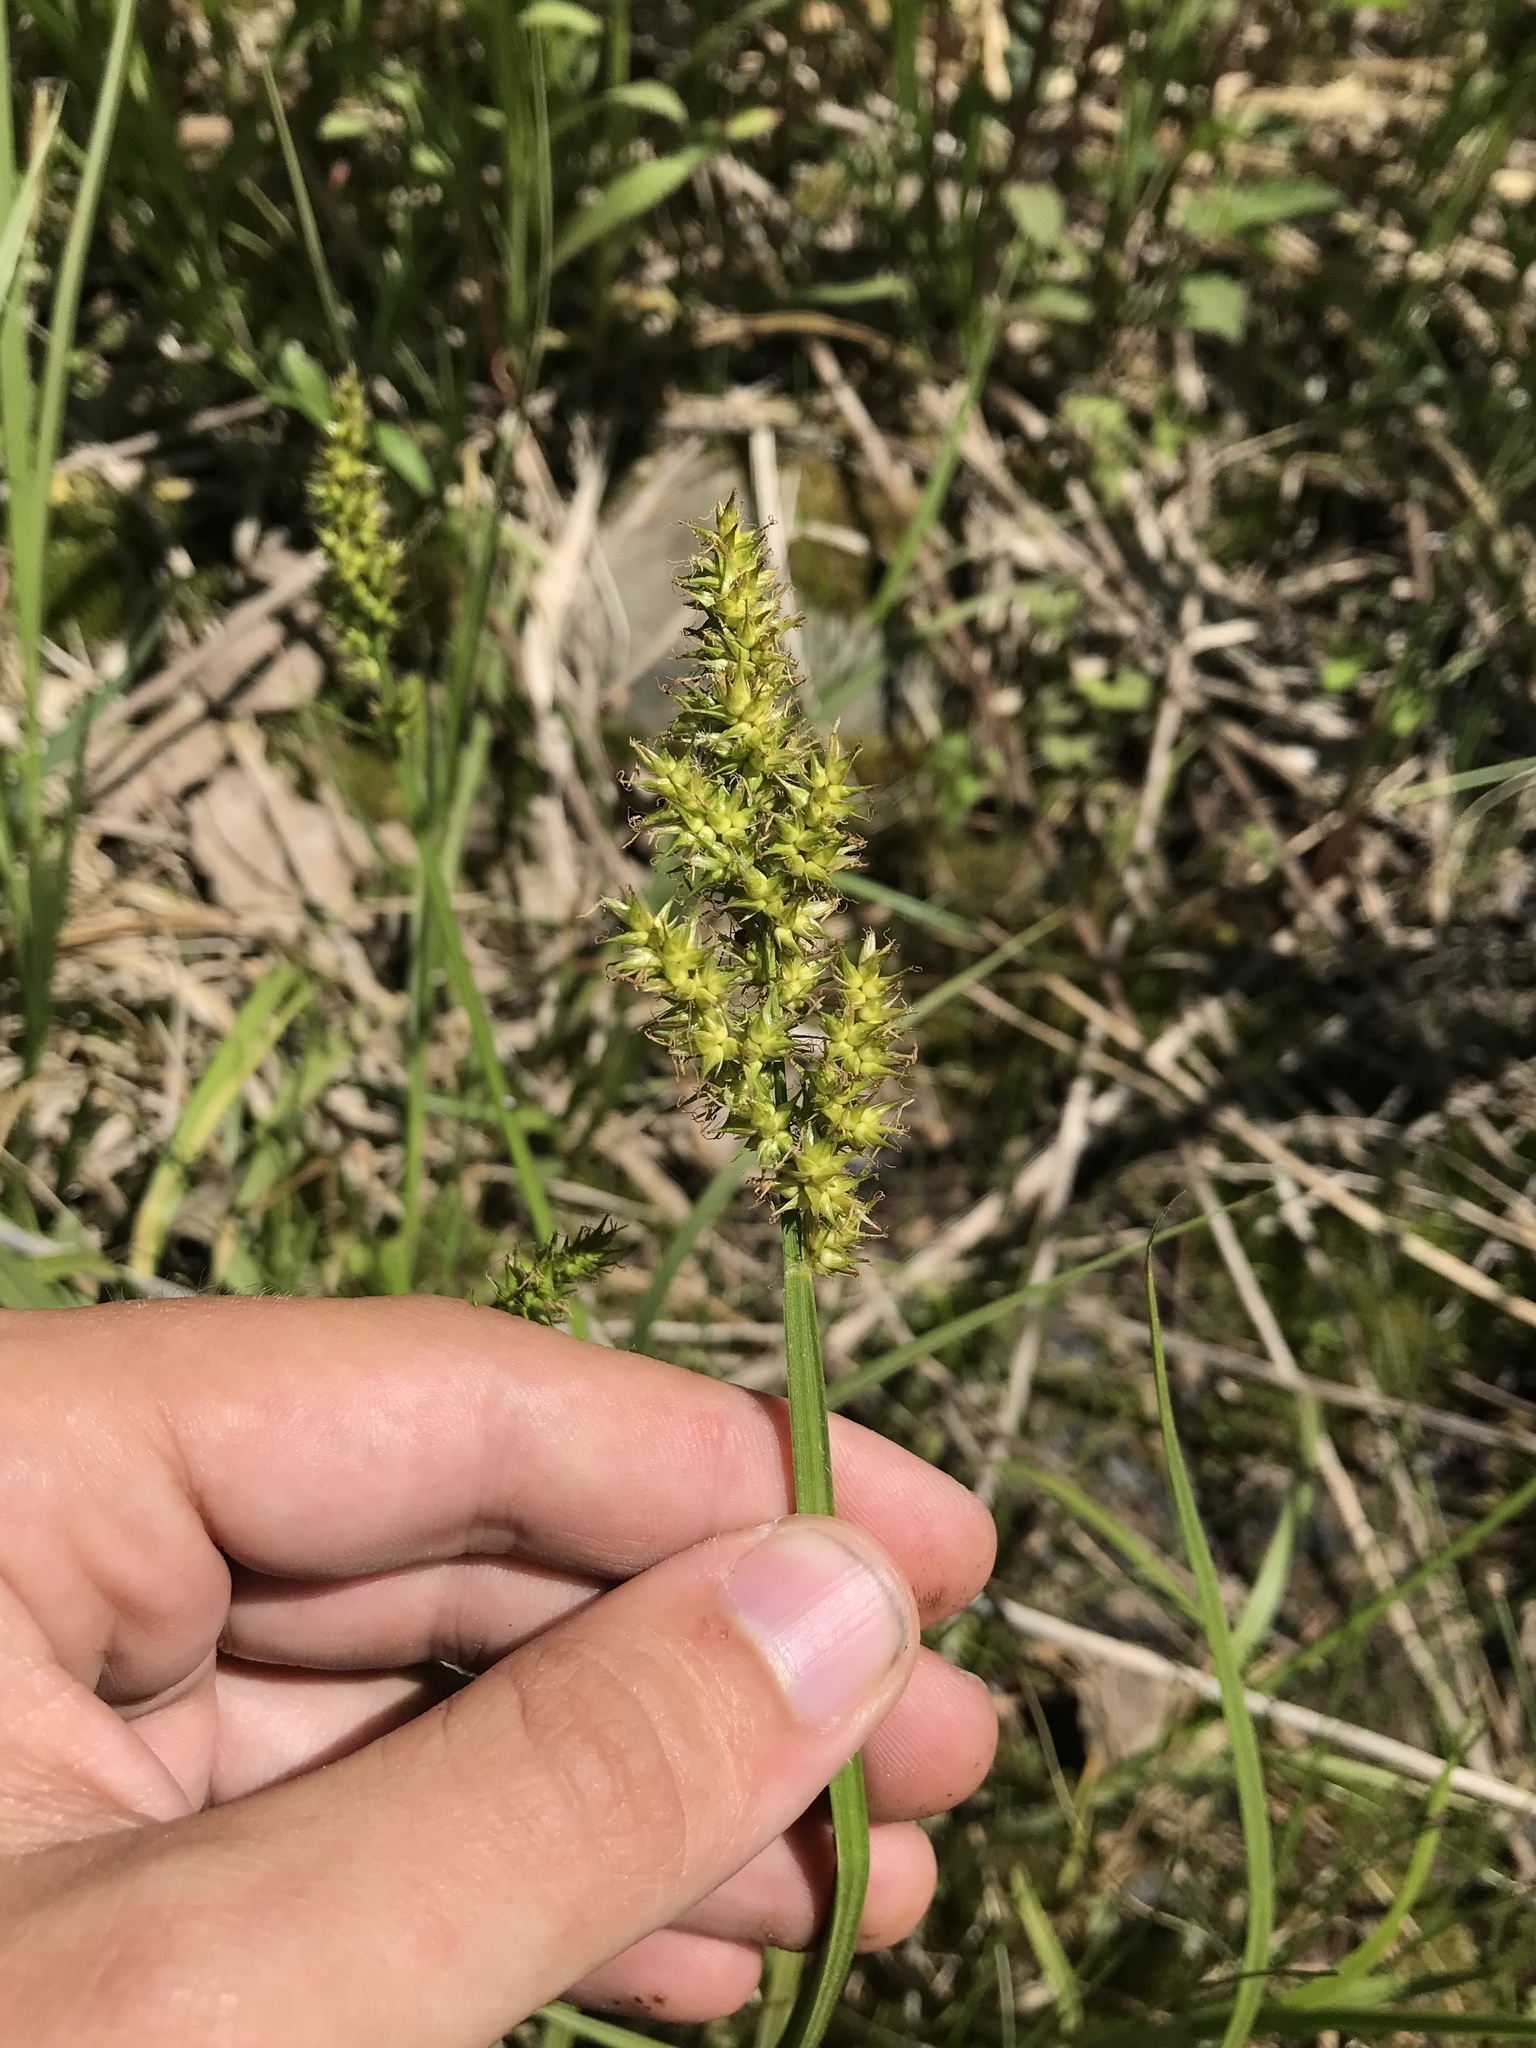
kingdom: Plantae
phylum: Tracheophyta
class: Liliopsida
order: Poales
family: Cyperaceae
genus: Carex
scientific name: Carex stipata
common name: Awl-fruited sedge
